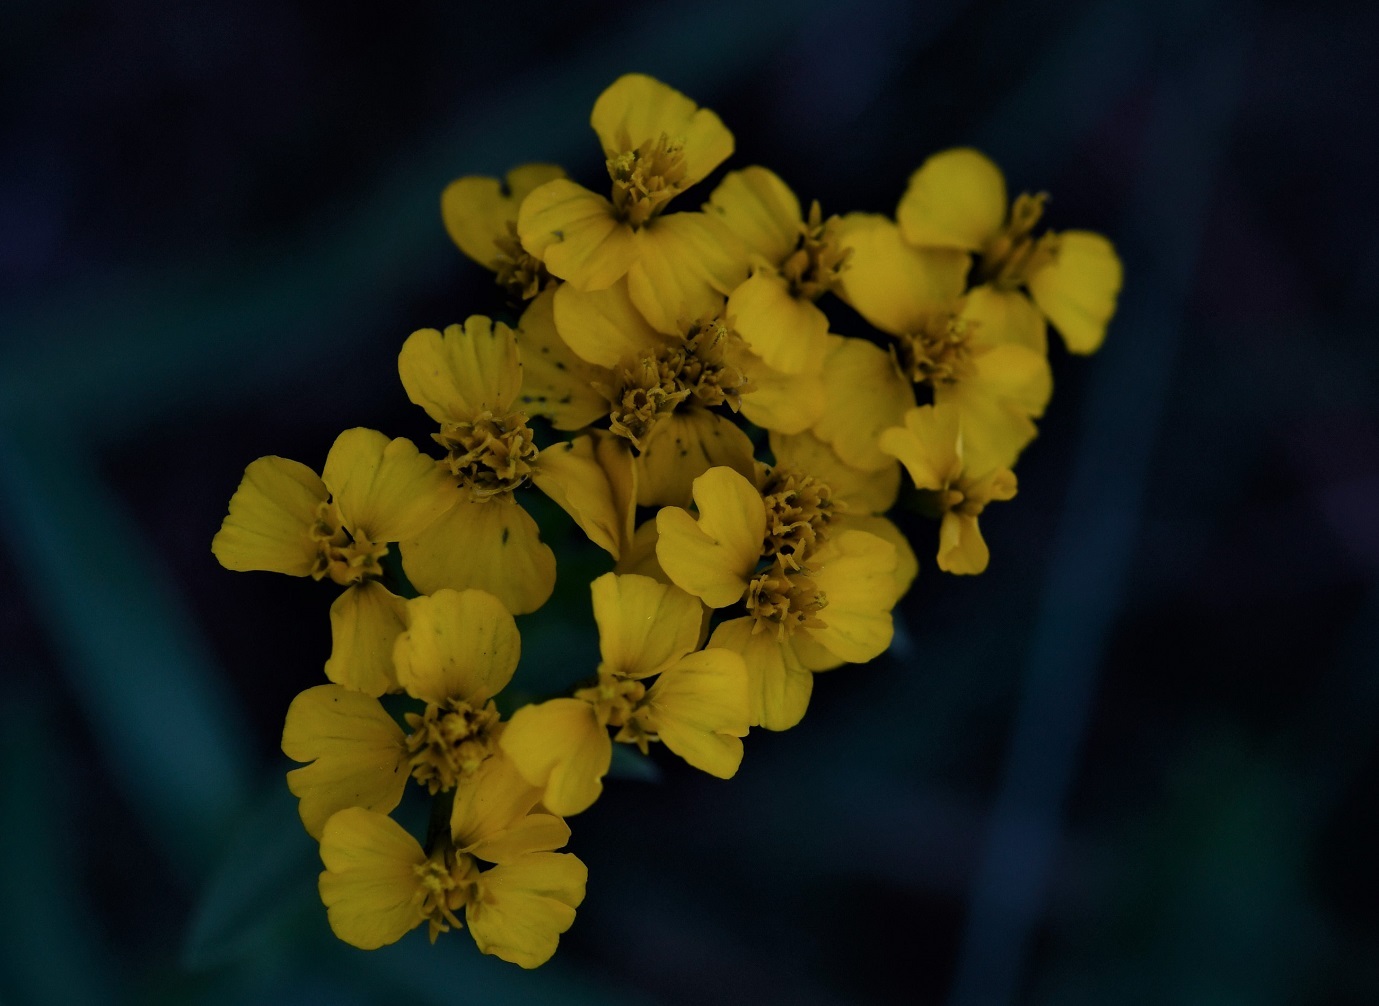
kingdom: Plantae
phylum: Tracheophyta
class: Magnoliopsida
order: Asterales
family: Asteraceae
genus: Tagetes
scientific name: Tagetes lucida
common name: Sweetscented marigold
